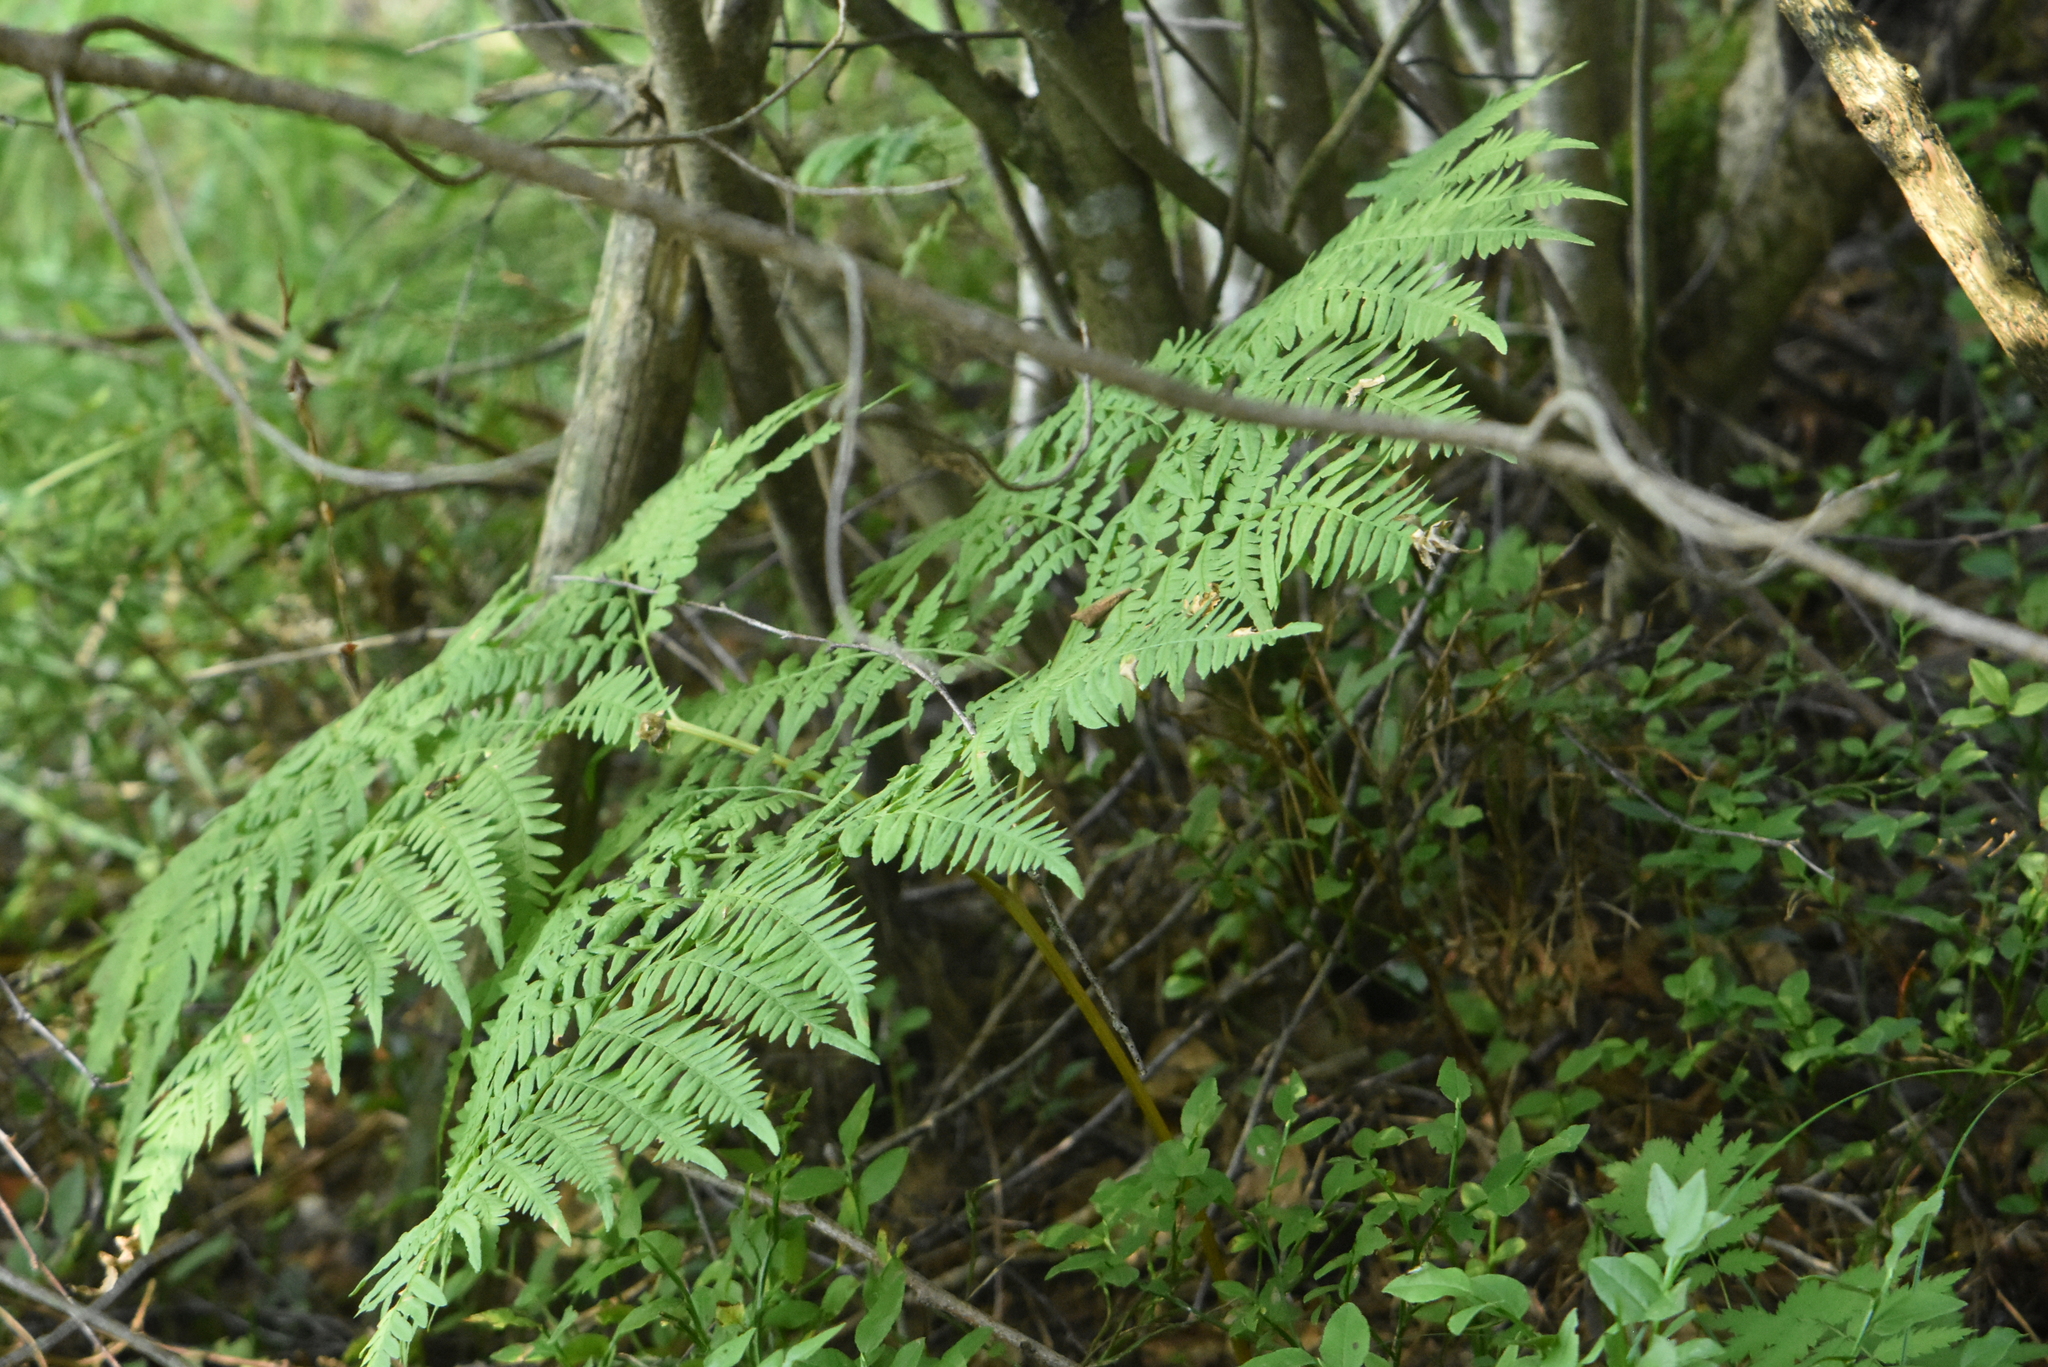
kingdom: Plantae
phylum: Tracheophyta
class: Polypodiopsida
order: Polypodiales
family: Dennstaedtiaceae
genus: Pteridium
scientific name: Pteridium aquilinum
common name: Bracken
